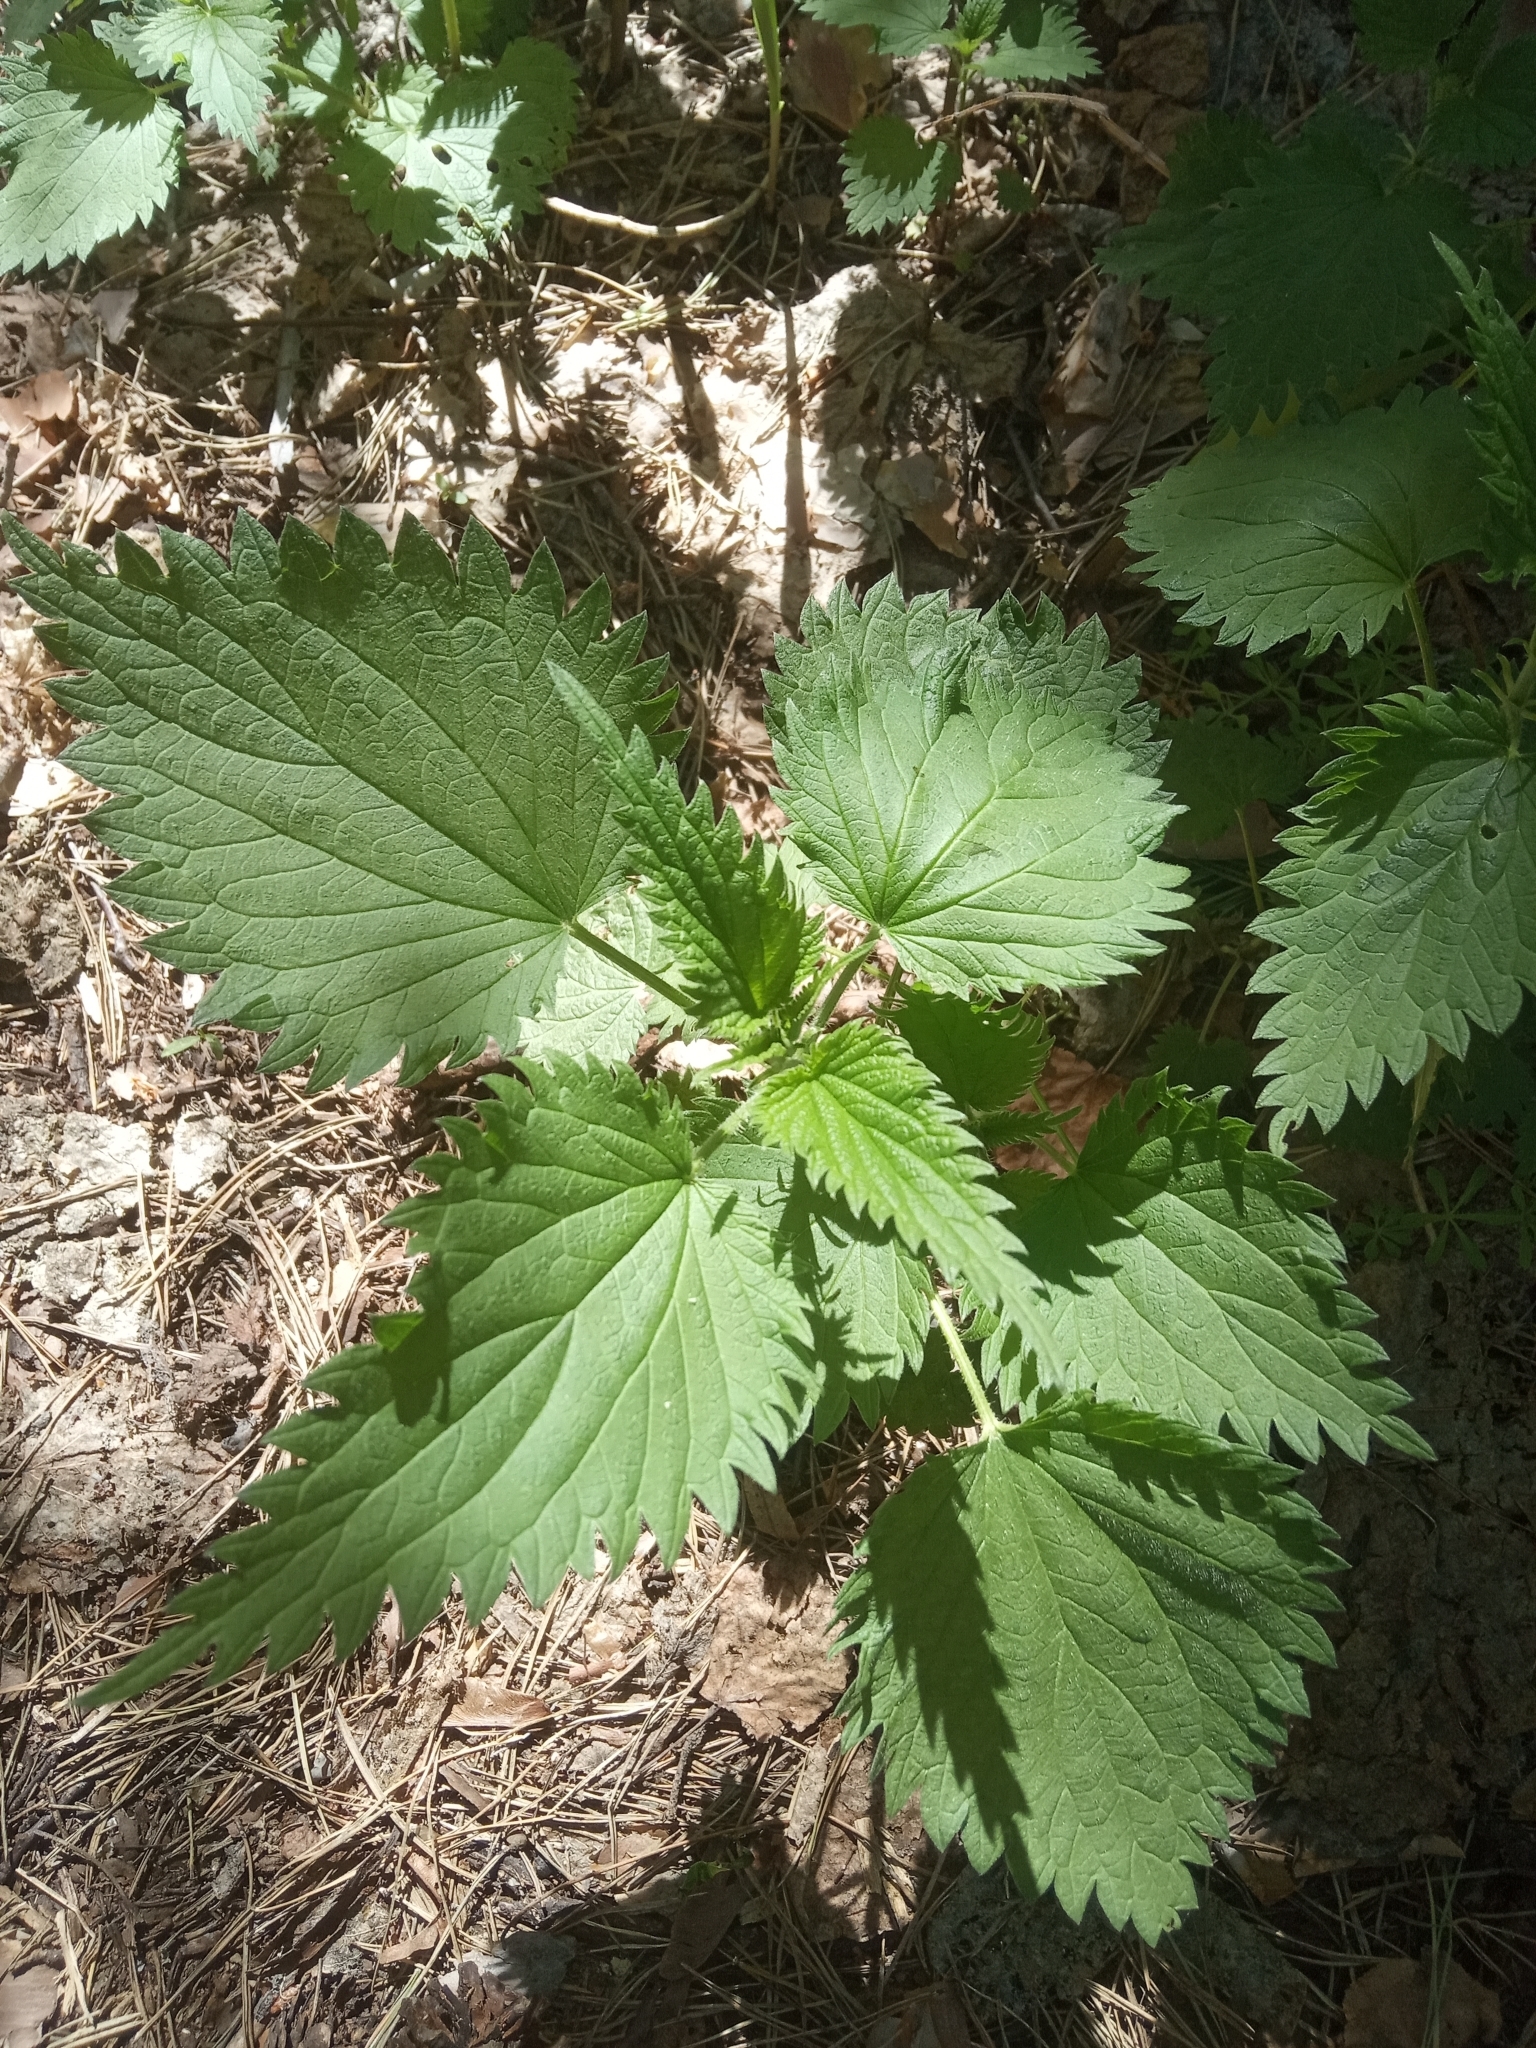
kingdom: Plantae
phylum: Tracheophyta
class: Magnoliopsida
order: Rosales
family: Urticaceae
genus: Urtica
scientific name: Urtica dioica
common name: Common nettle
